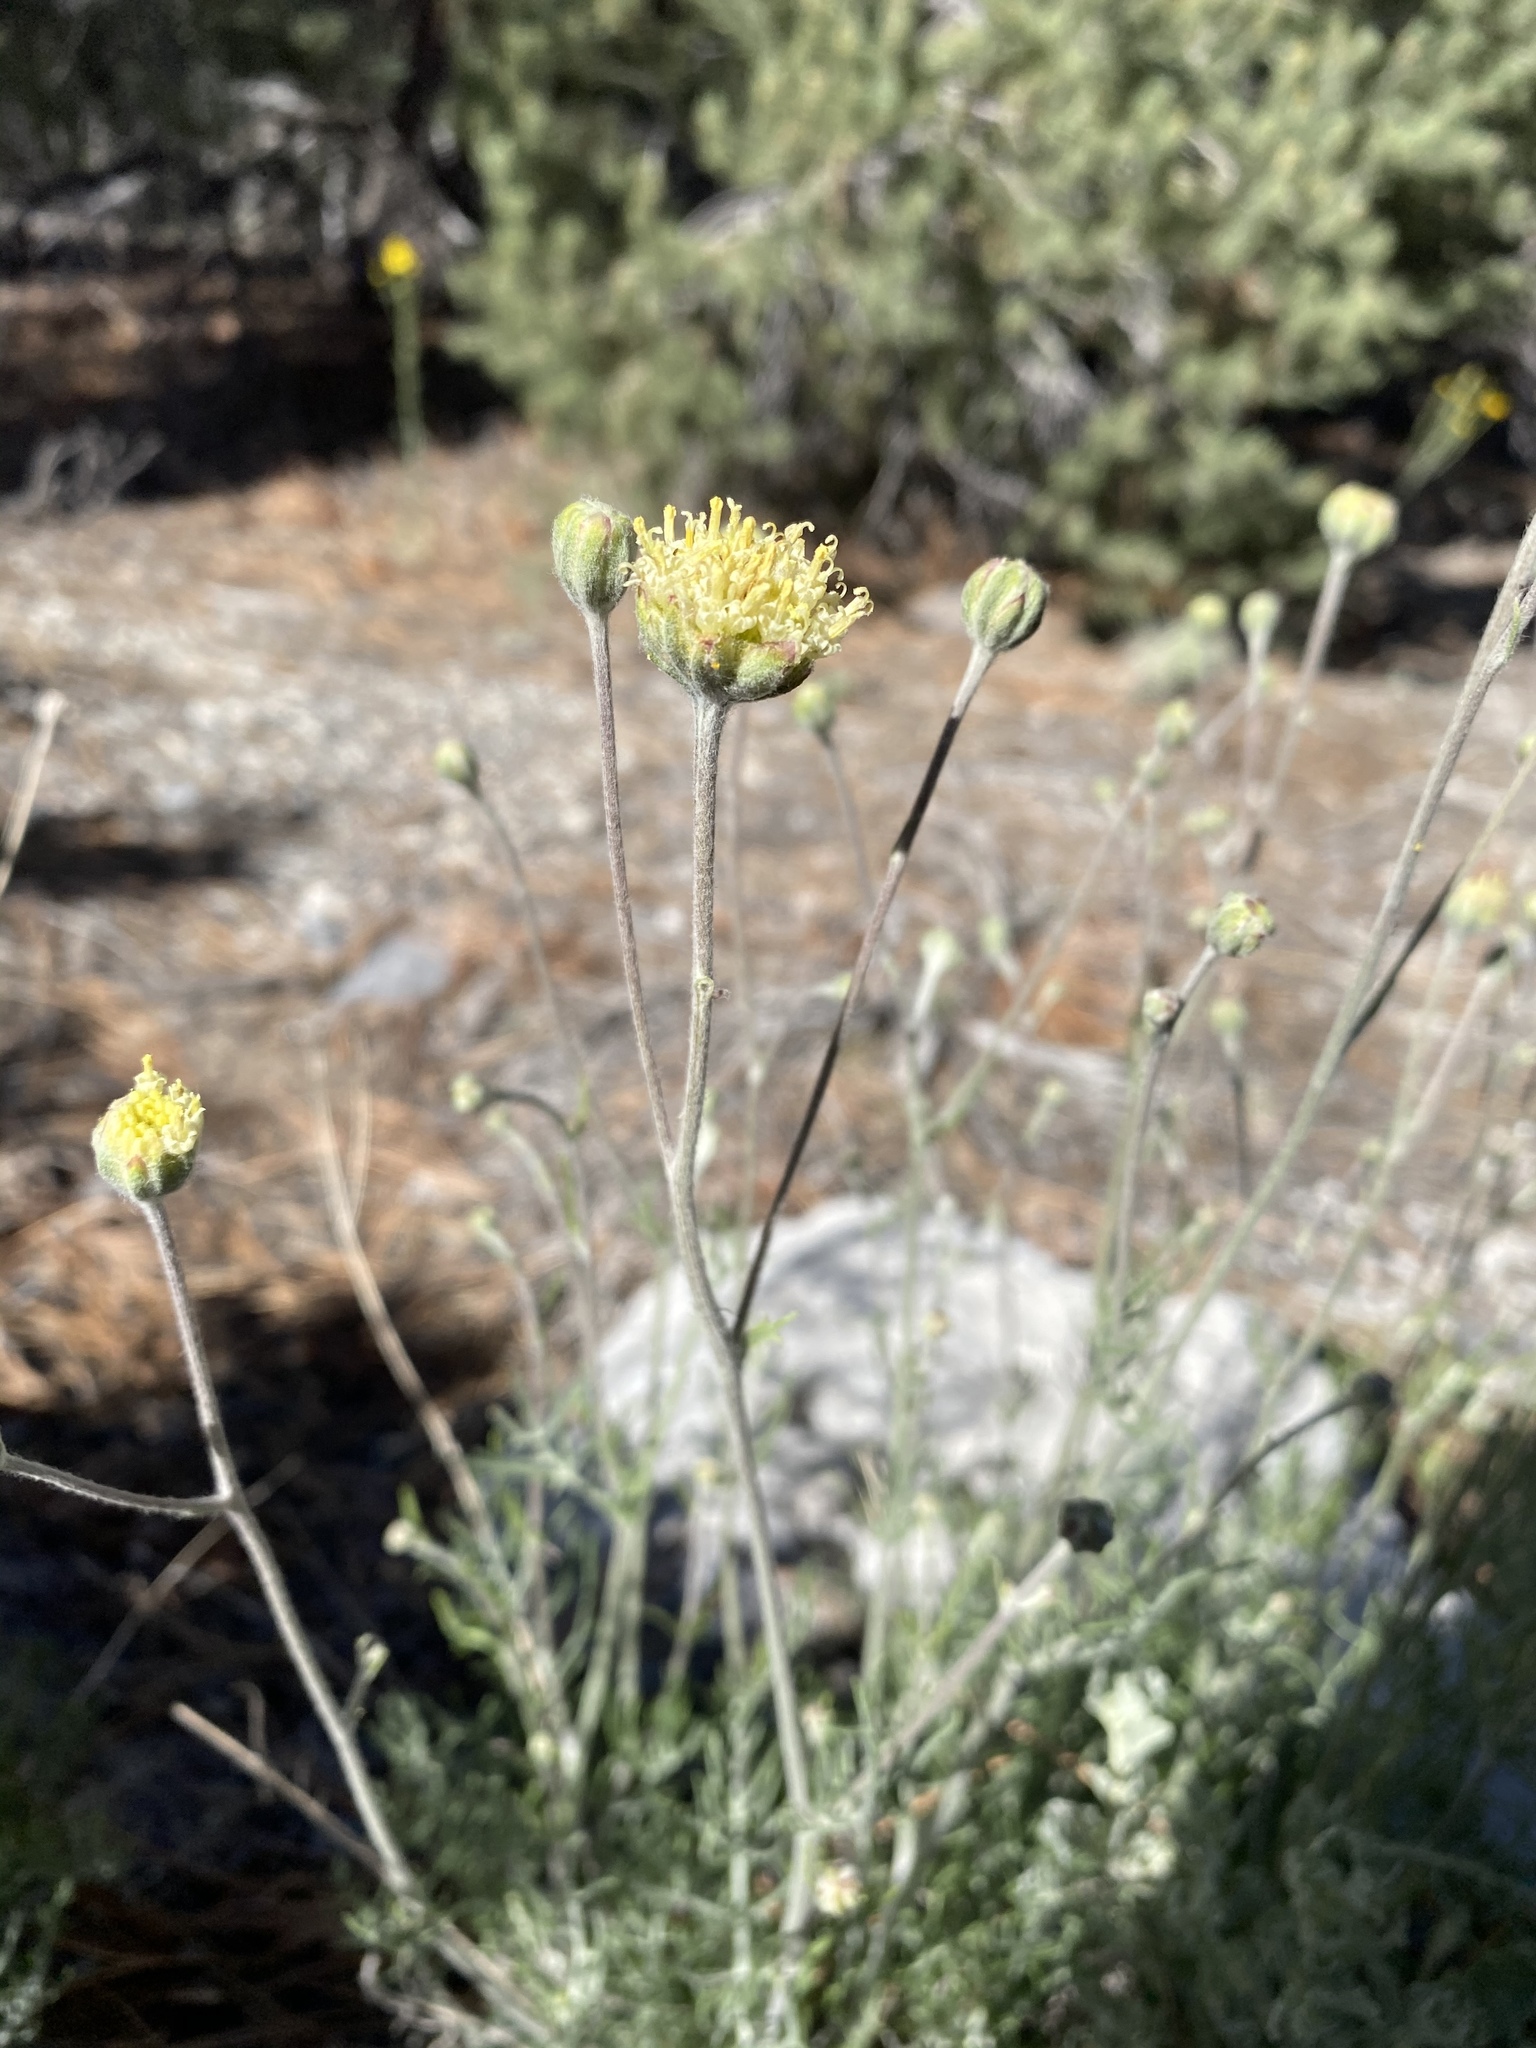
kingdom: Plantae
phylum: Tracheophyta
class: Magnoliopsida
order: Asterales
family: Asteraceae
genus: Hymenopappus
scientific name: Hymenopappus filifolius
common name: Columbia cutleaf
